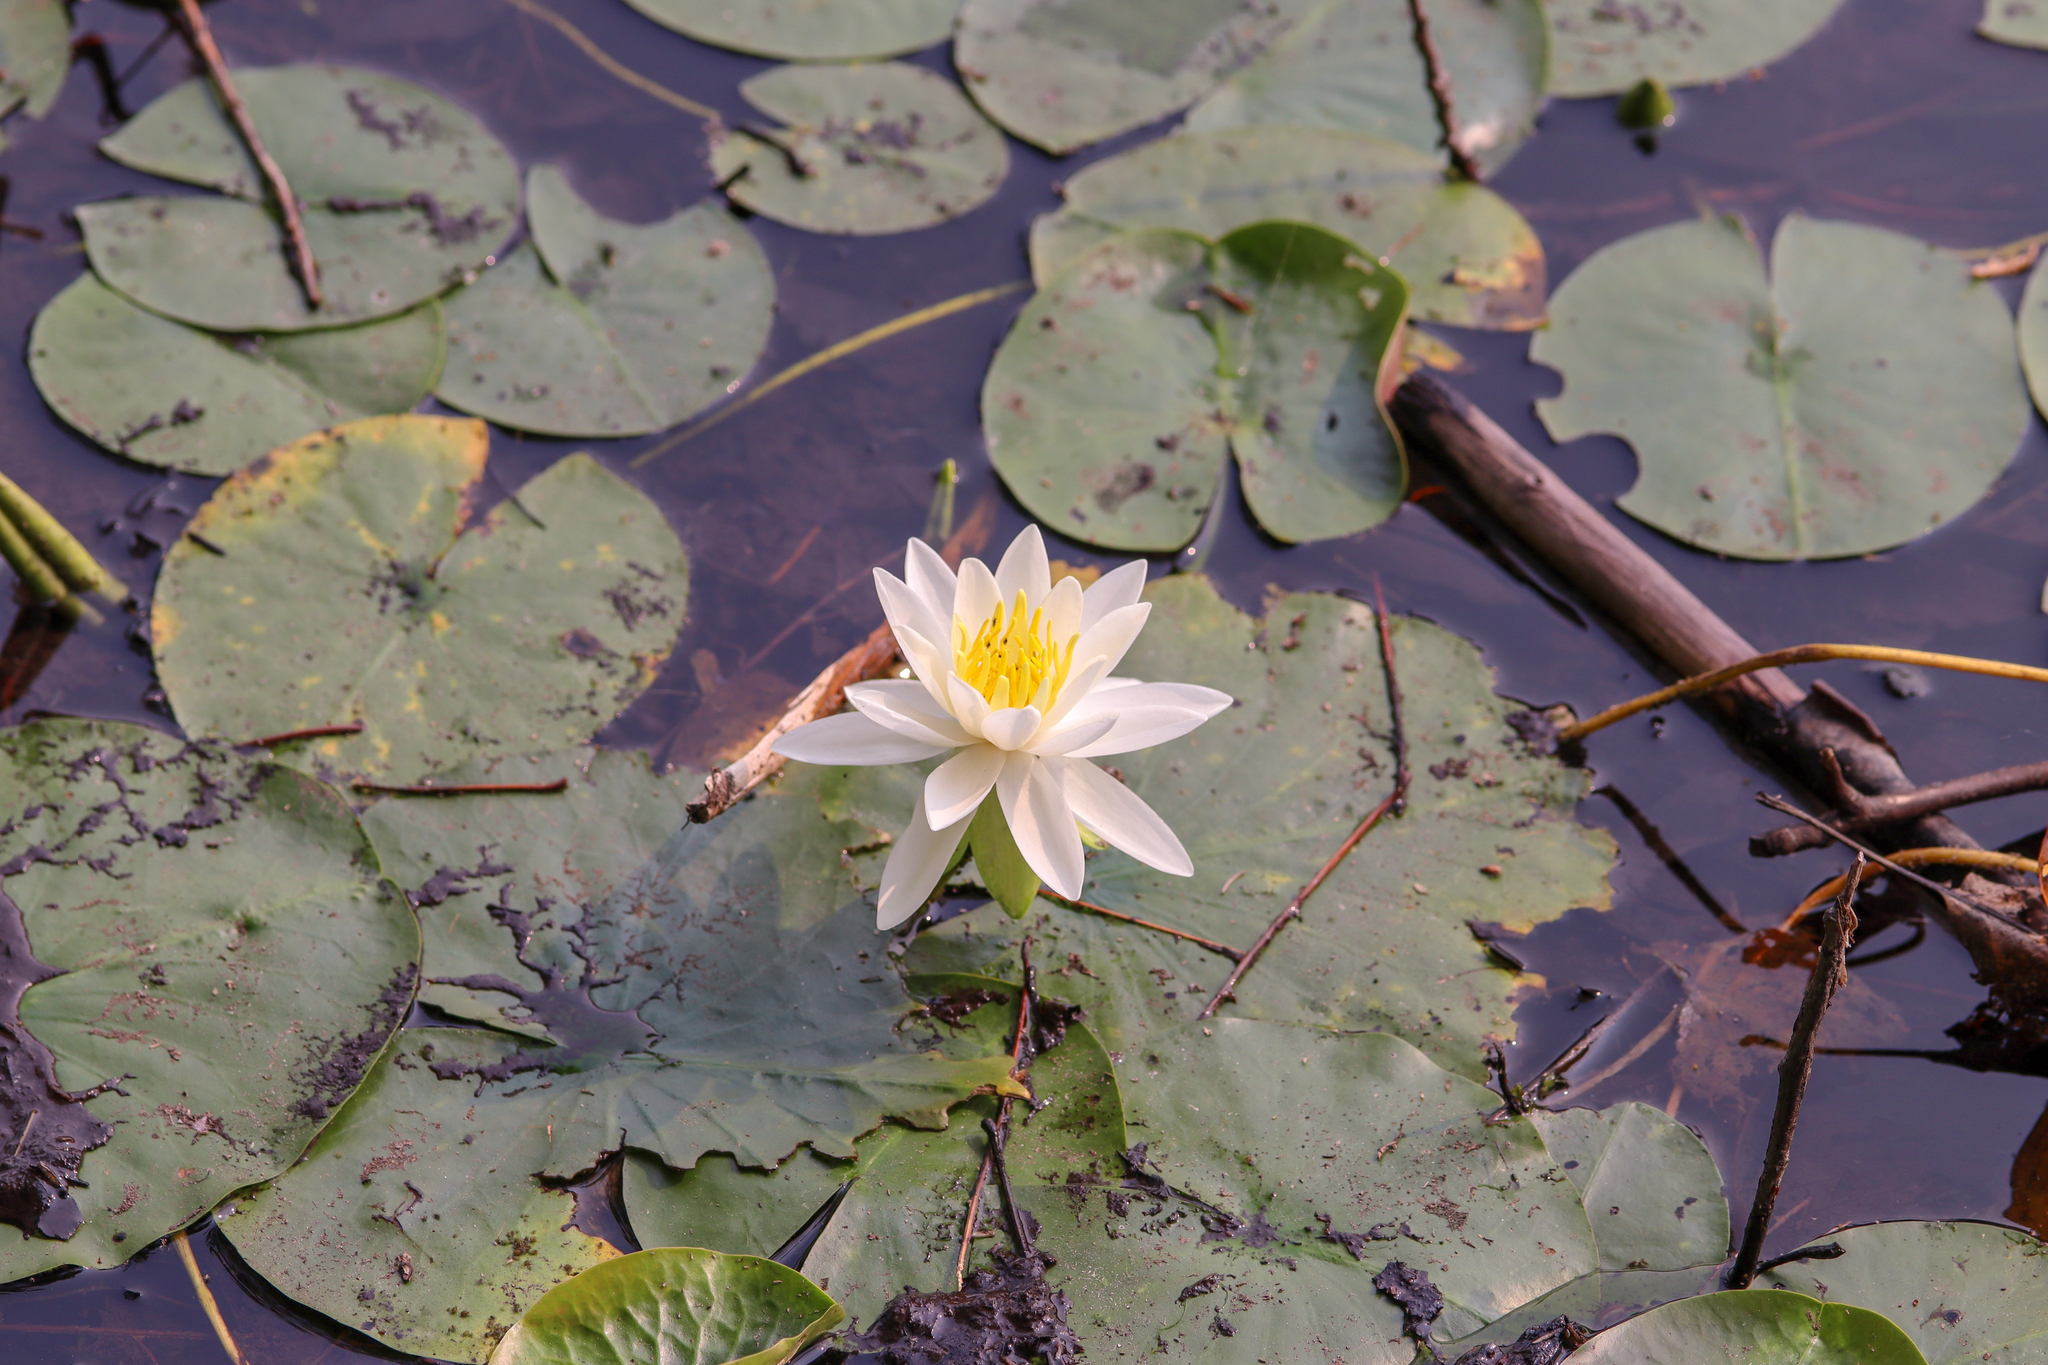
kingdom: Plantae
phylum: Tracheophyta
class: Magnoliopsida
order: Nymphaeales
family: Nymphaeaceae
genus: Nymphaea
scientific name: Nymphaea odorata
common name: Fragrant water-lily
